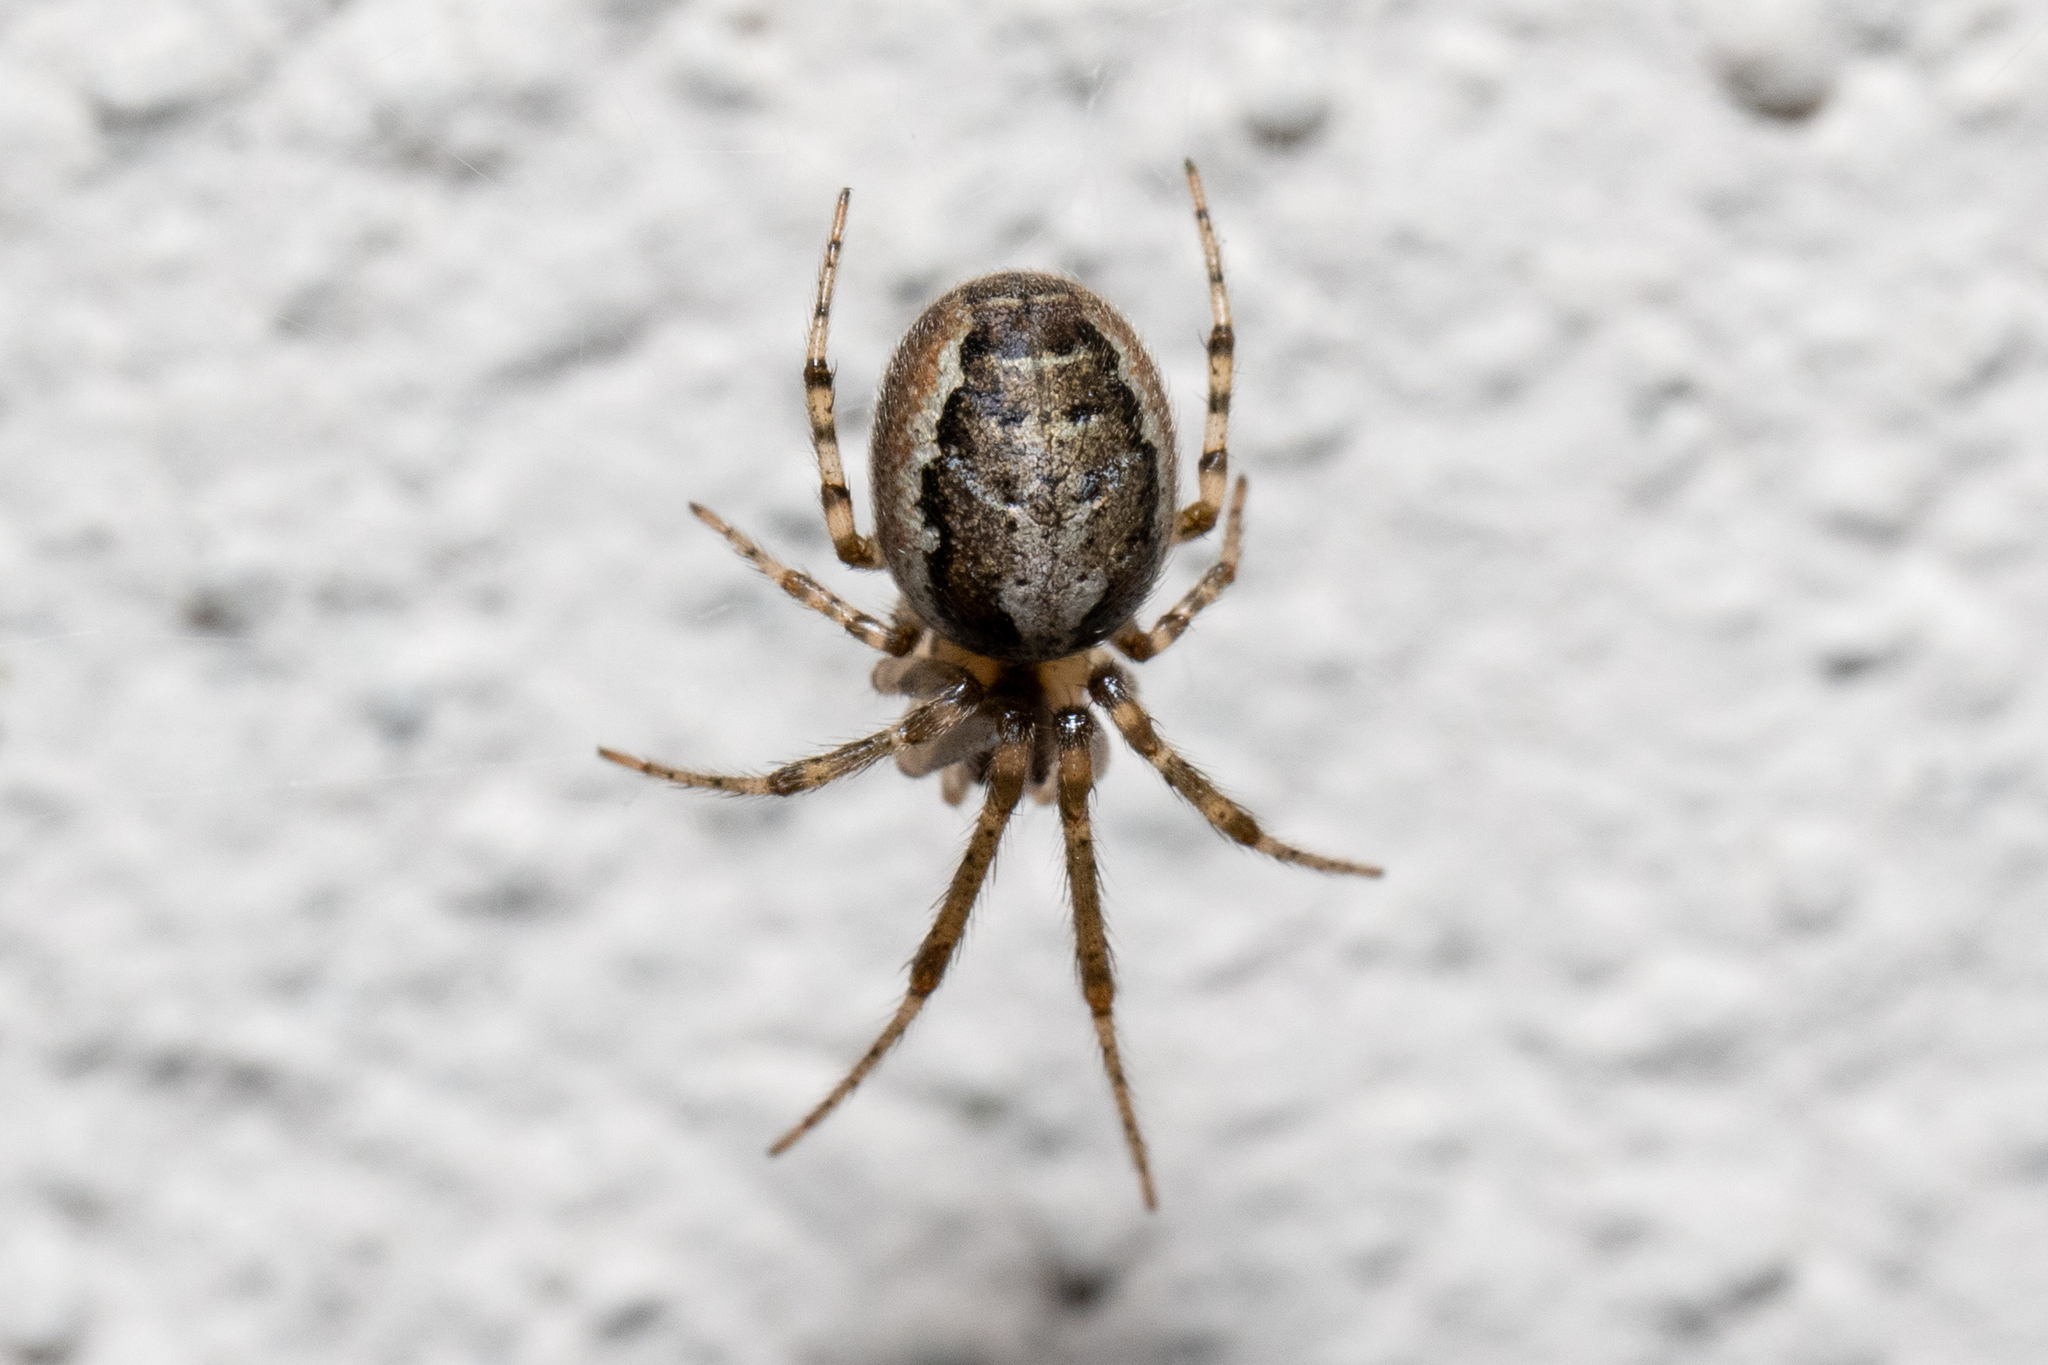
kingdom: Animalia
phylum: Arthropoda
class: Arachnida
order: Araneae
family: Araneidae
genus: Zygiella
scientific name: Zygiella x-notata
